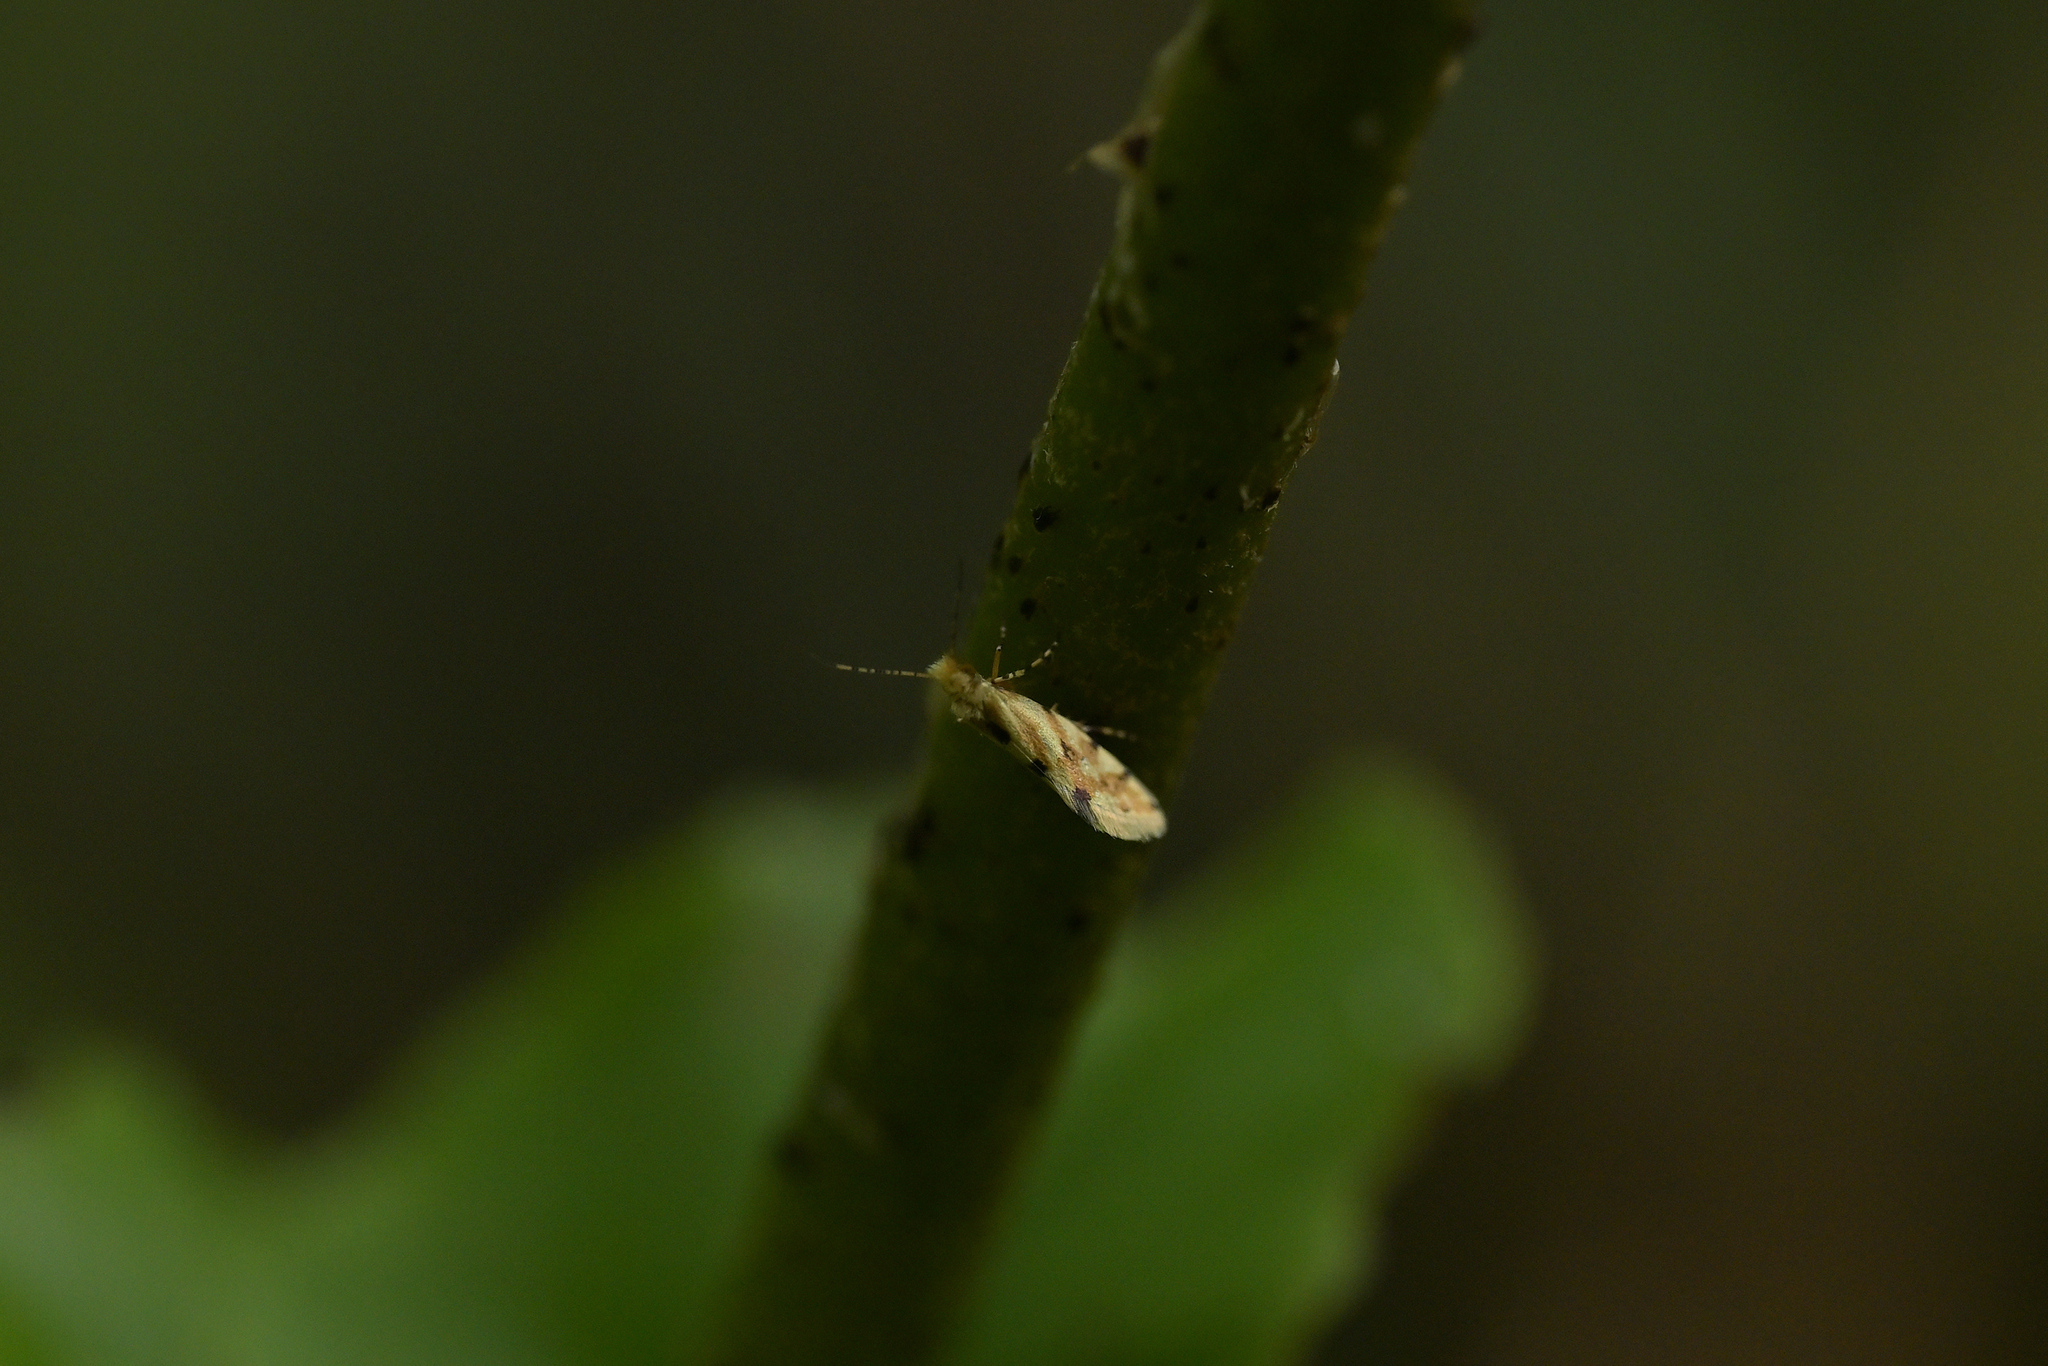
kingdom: Animalia
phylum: Arthropoda
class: Insecta
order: Lepidoptera
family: Micropterigidae
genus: Sabatinca
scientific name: Sabatinca chalcophanes
